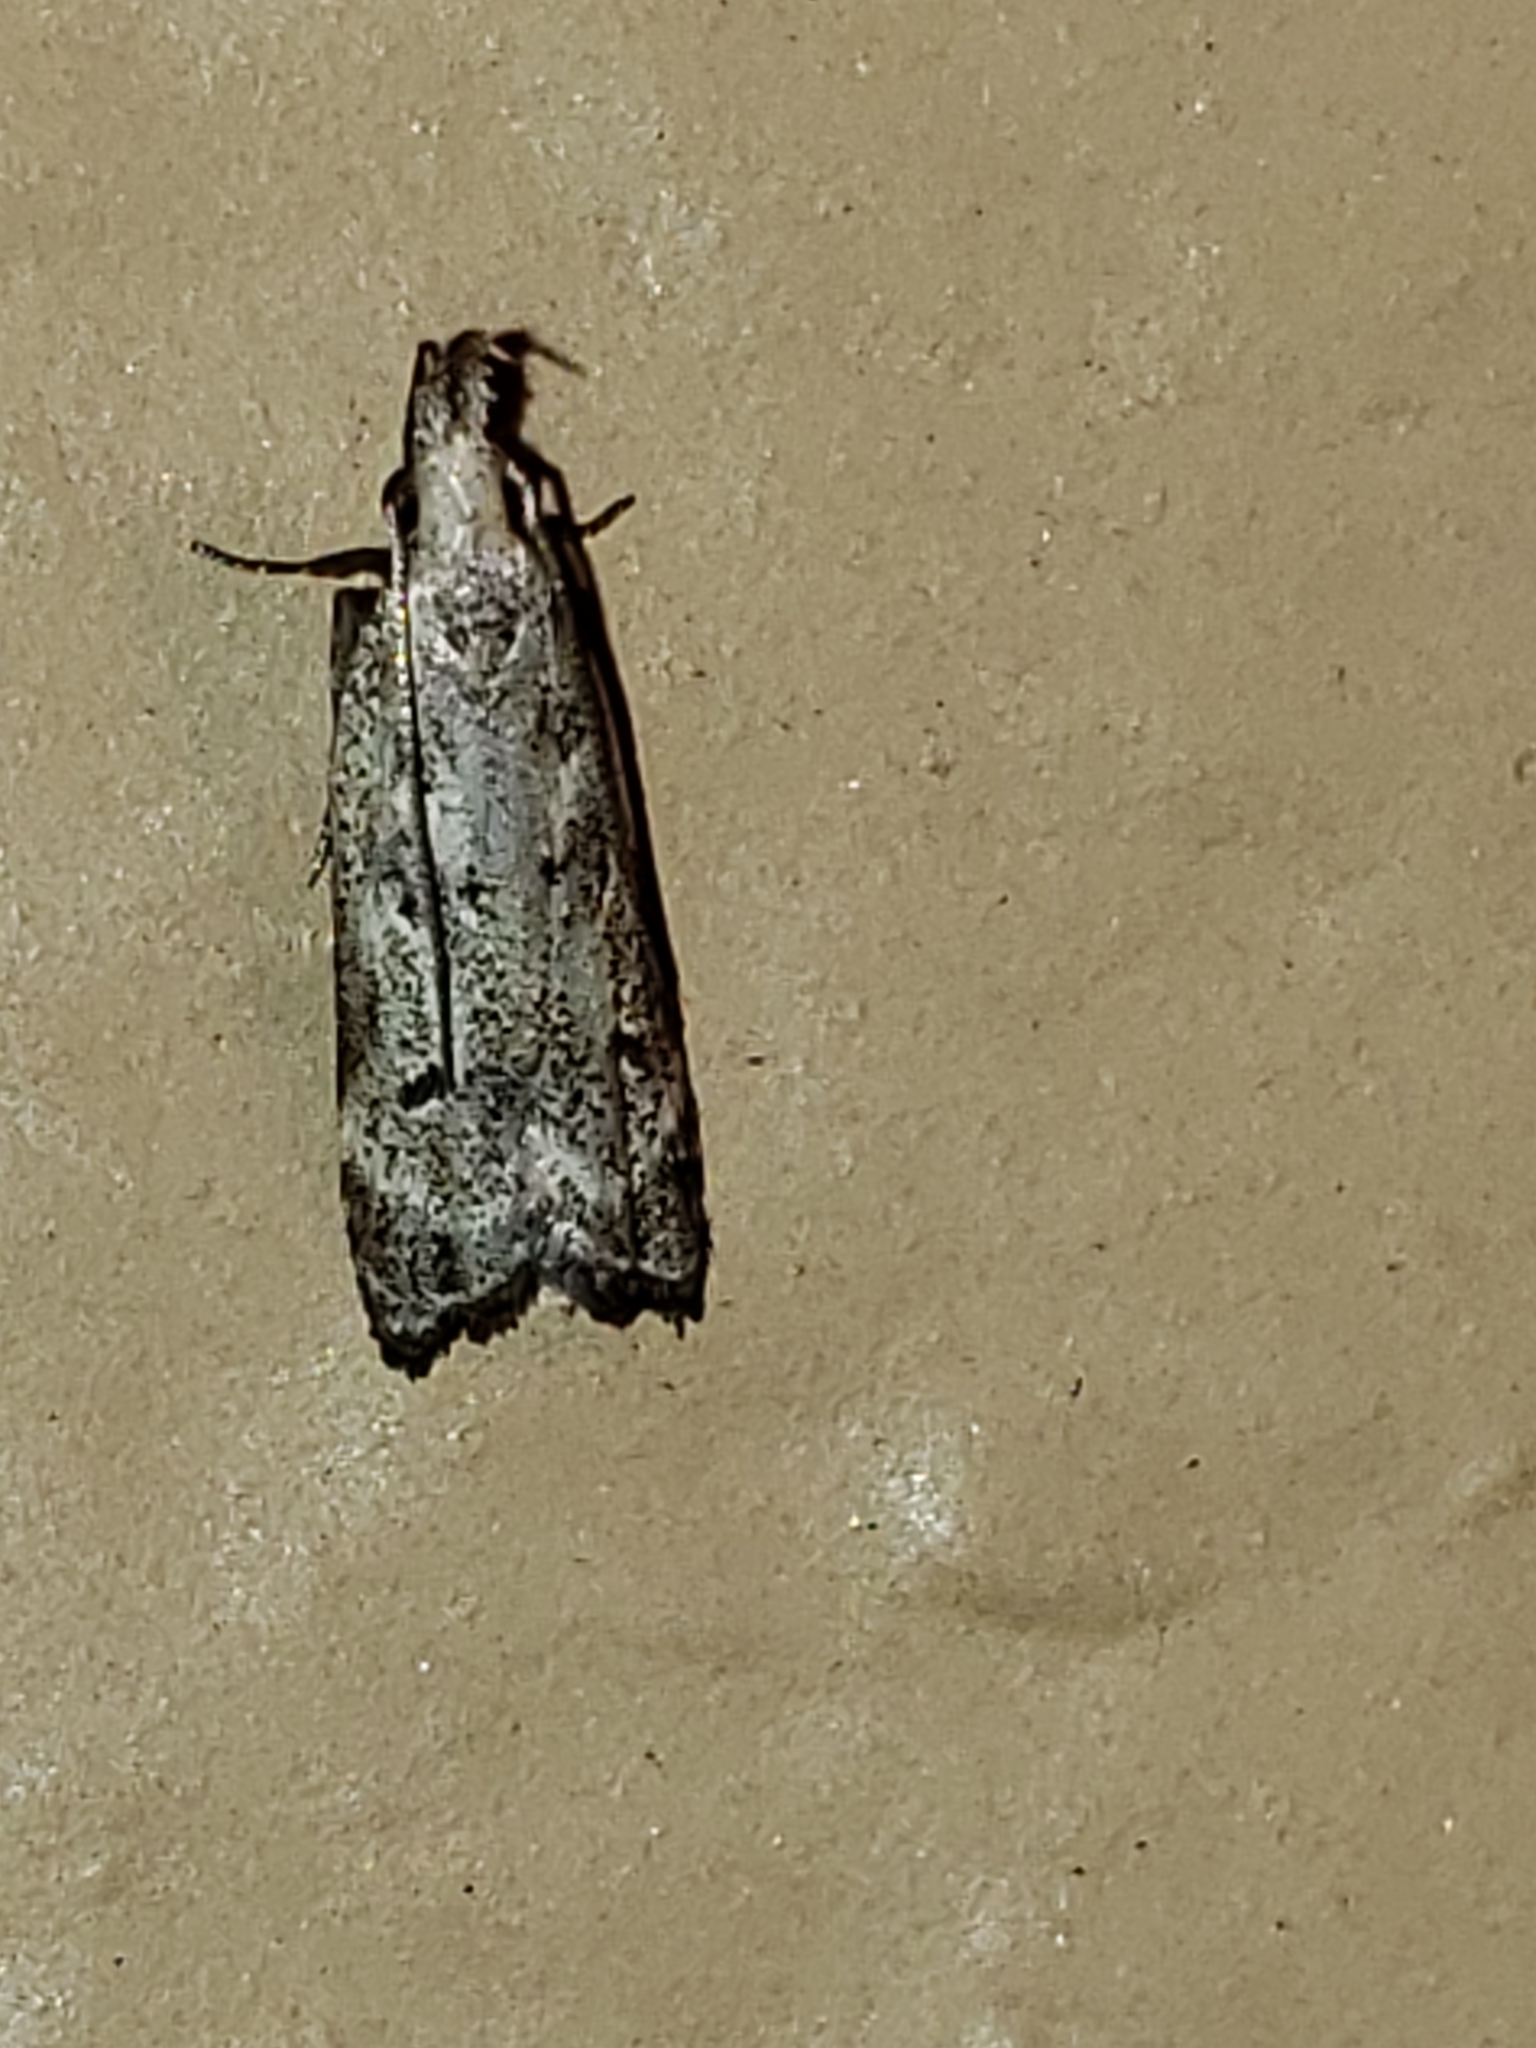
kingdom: Animalia
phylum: Arthropoda
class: Insecta
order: Lepidoptera
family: Gelechiidae
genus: Dichomeris
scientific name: Dichomeris kimballi
